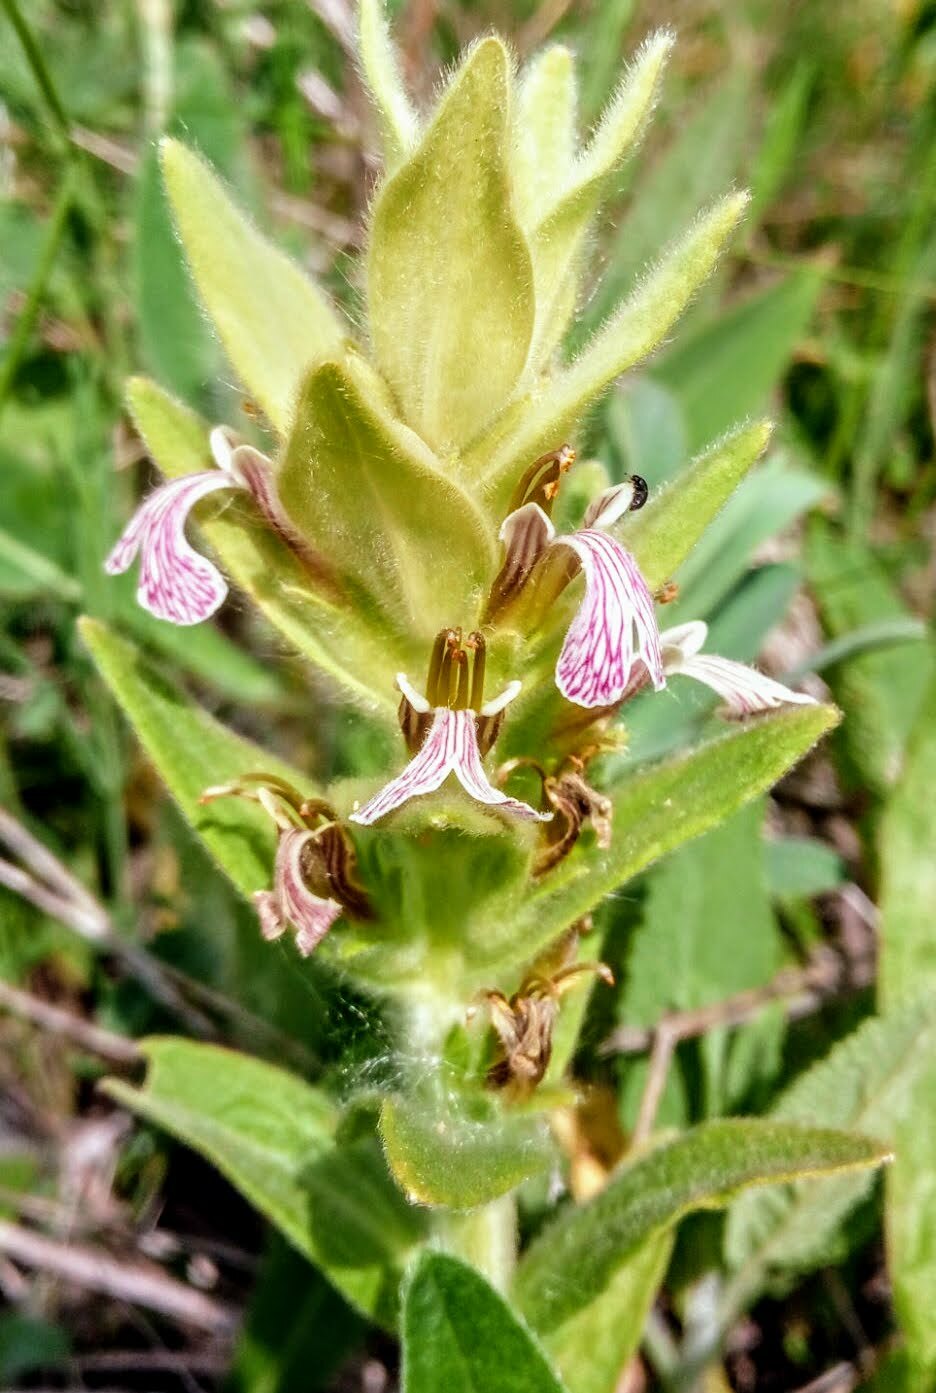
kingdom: Plantae
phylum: Tracheophyta
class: Magnoliopsida
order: Lamiales
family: Lamiaceae
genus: Ajuga
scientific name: Ajuga laxmannii
